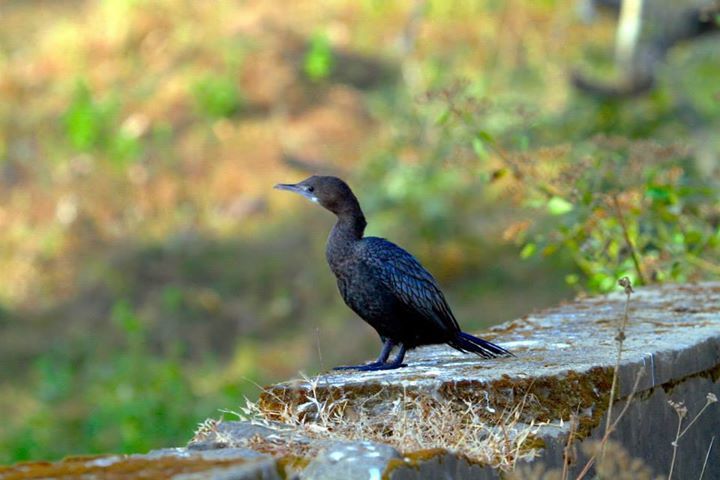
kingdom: Animalia
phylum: Chordata
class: Aves
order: Suliformes
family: Phalacrocoracidae
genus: Microcarbo
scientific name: Microcarbo niger
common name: Little cormorant
